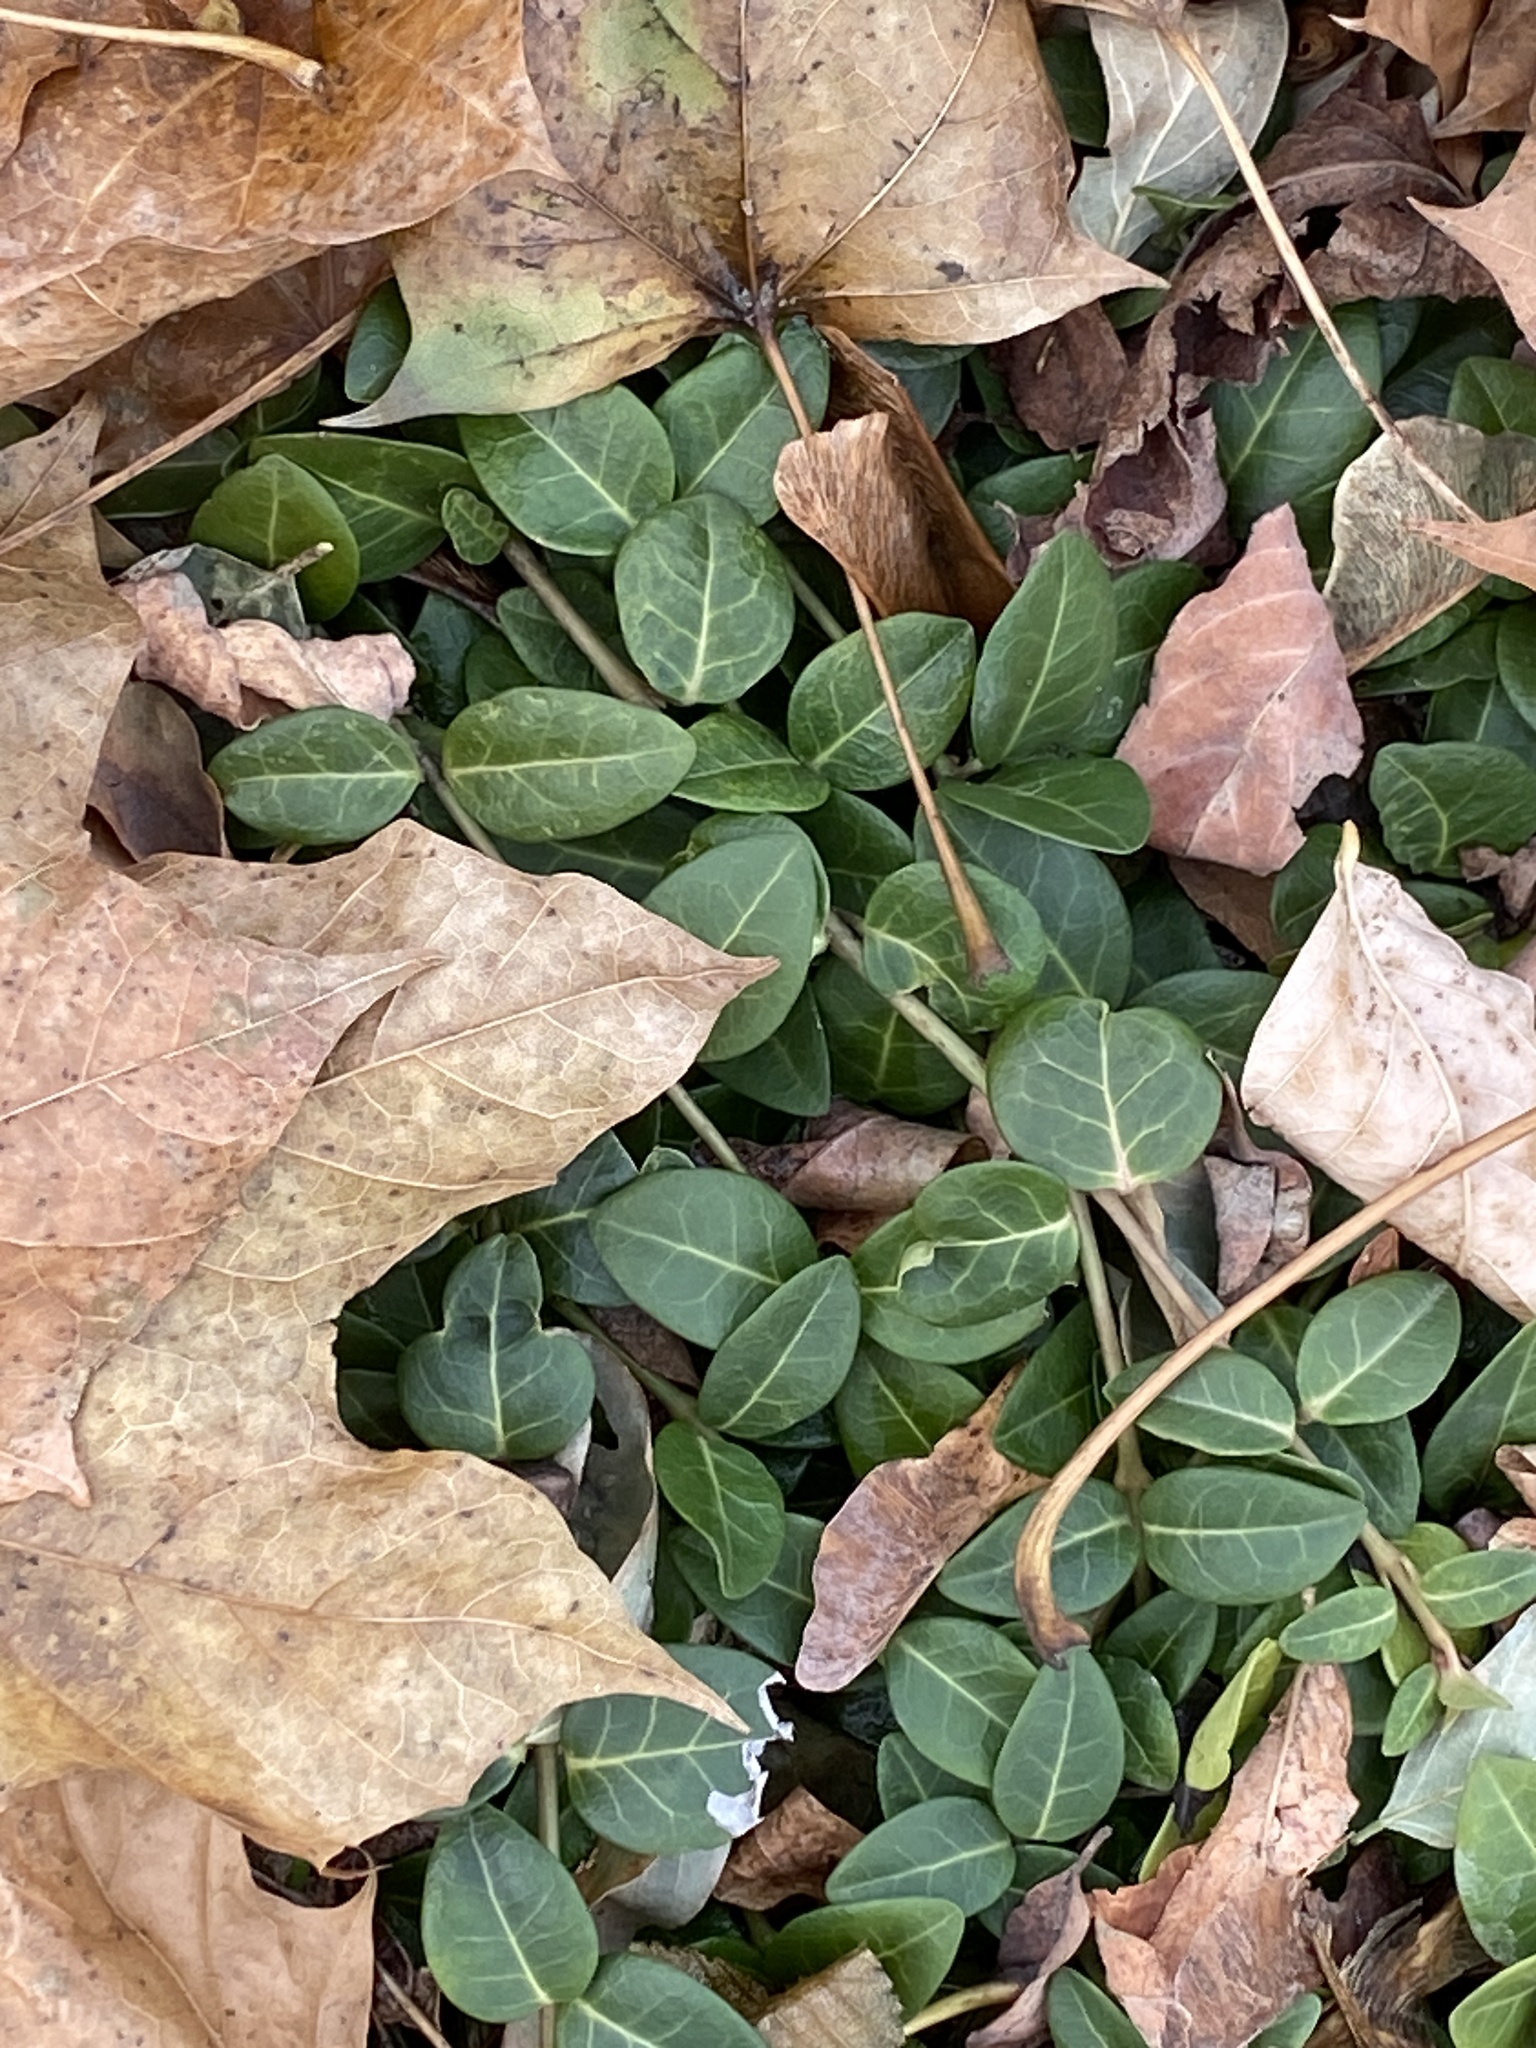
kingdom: Plantae
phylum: Tracheophyta
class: Magnoliopsida
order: Gentianales
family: Apocynaceae
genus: Vinca
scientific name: Vinca minor
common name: Lesser periwinkle
